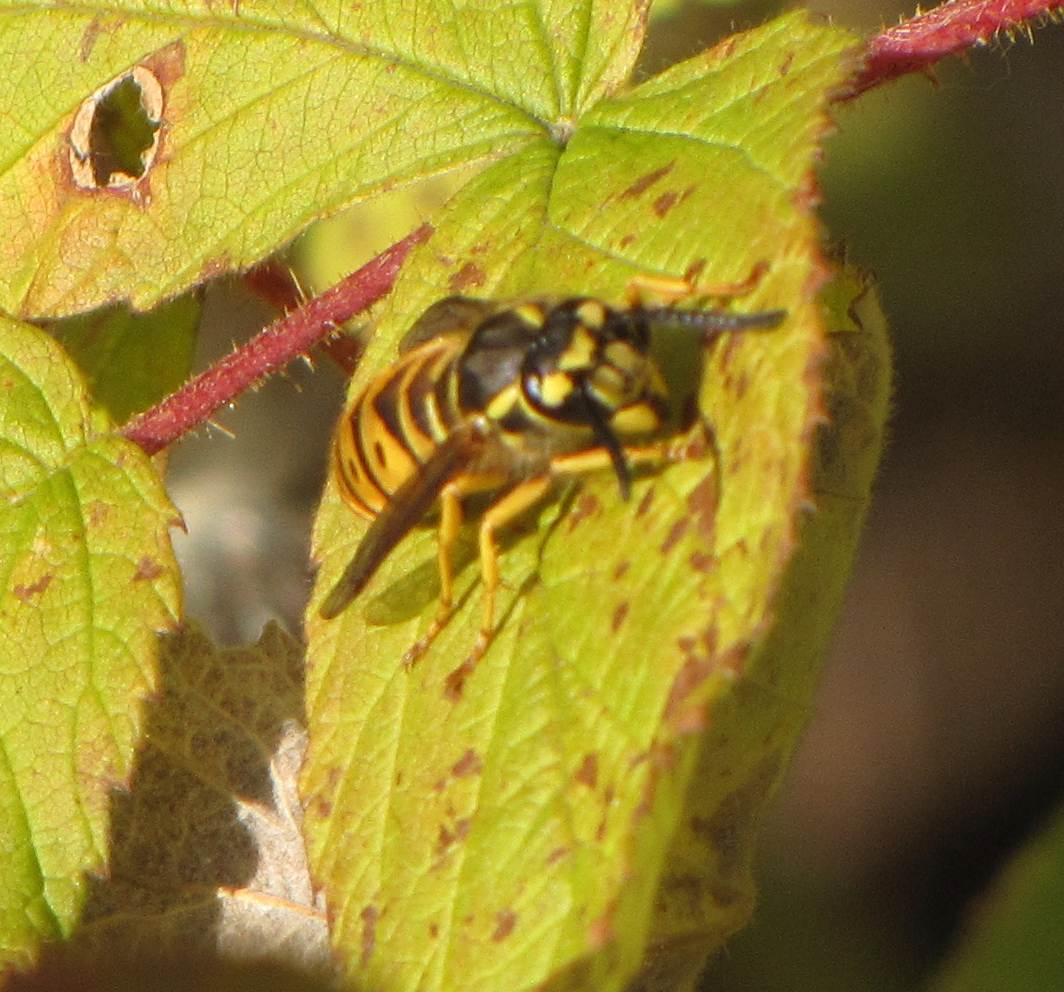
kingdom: Animalia
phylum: Arthropoda
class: Insecta
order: Hymenoptera
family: Vespidae
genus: Vespula
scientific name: Vespula maculifrons
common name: Eastern yellowjacket
